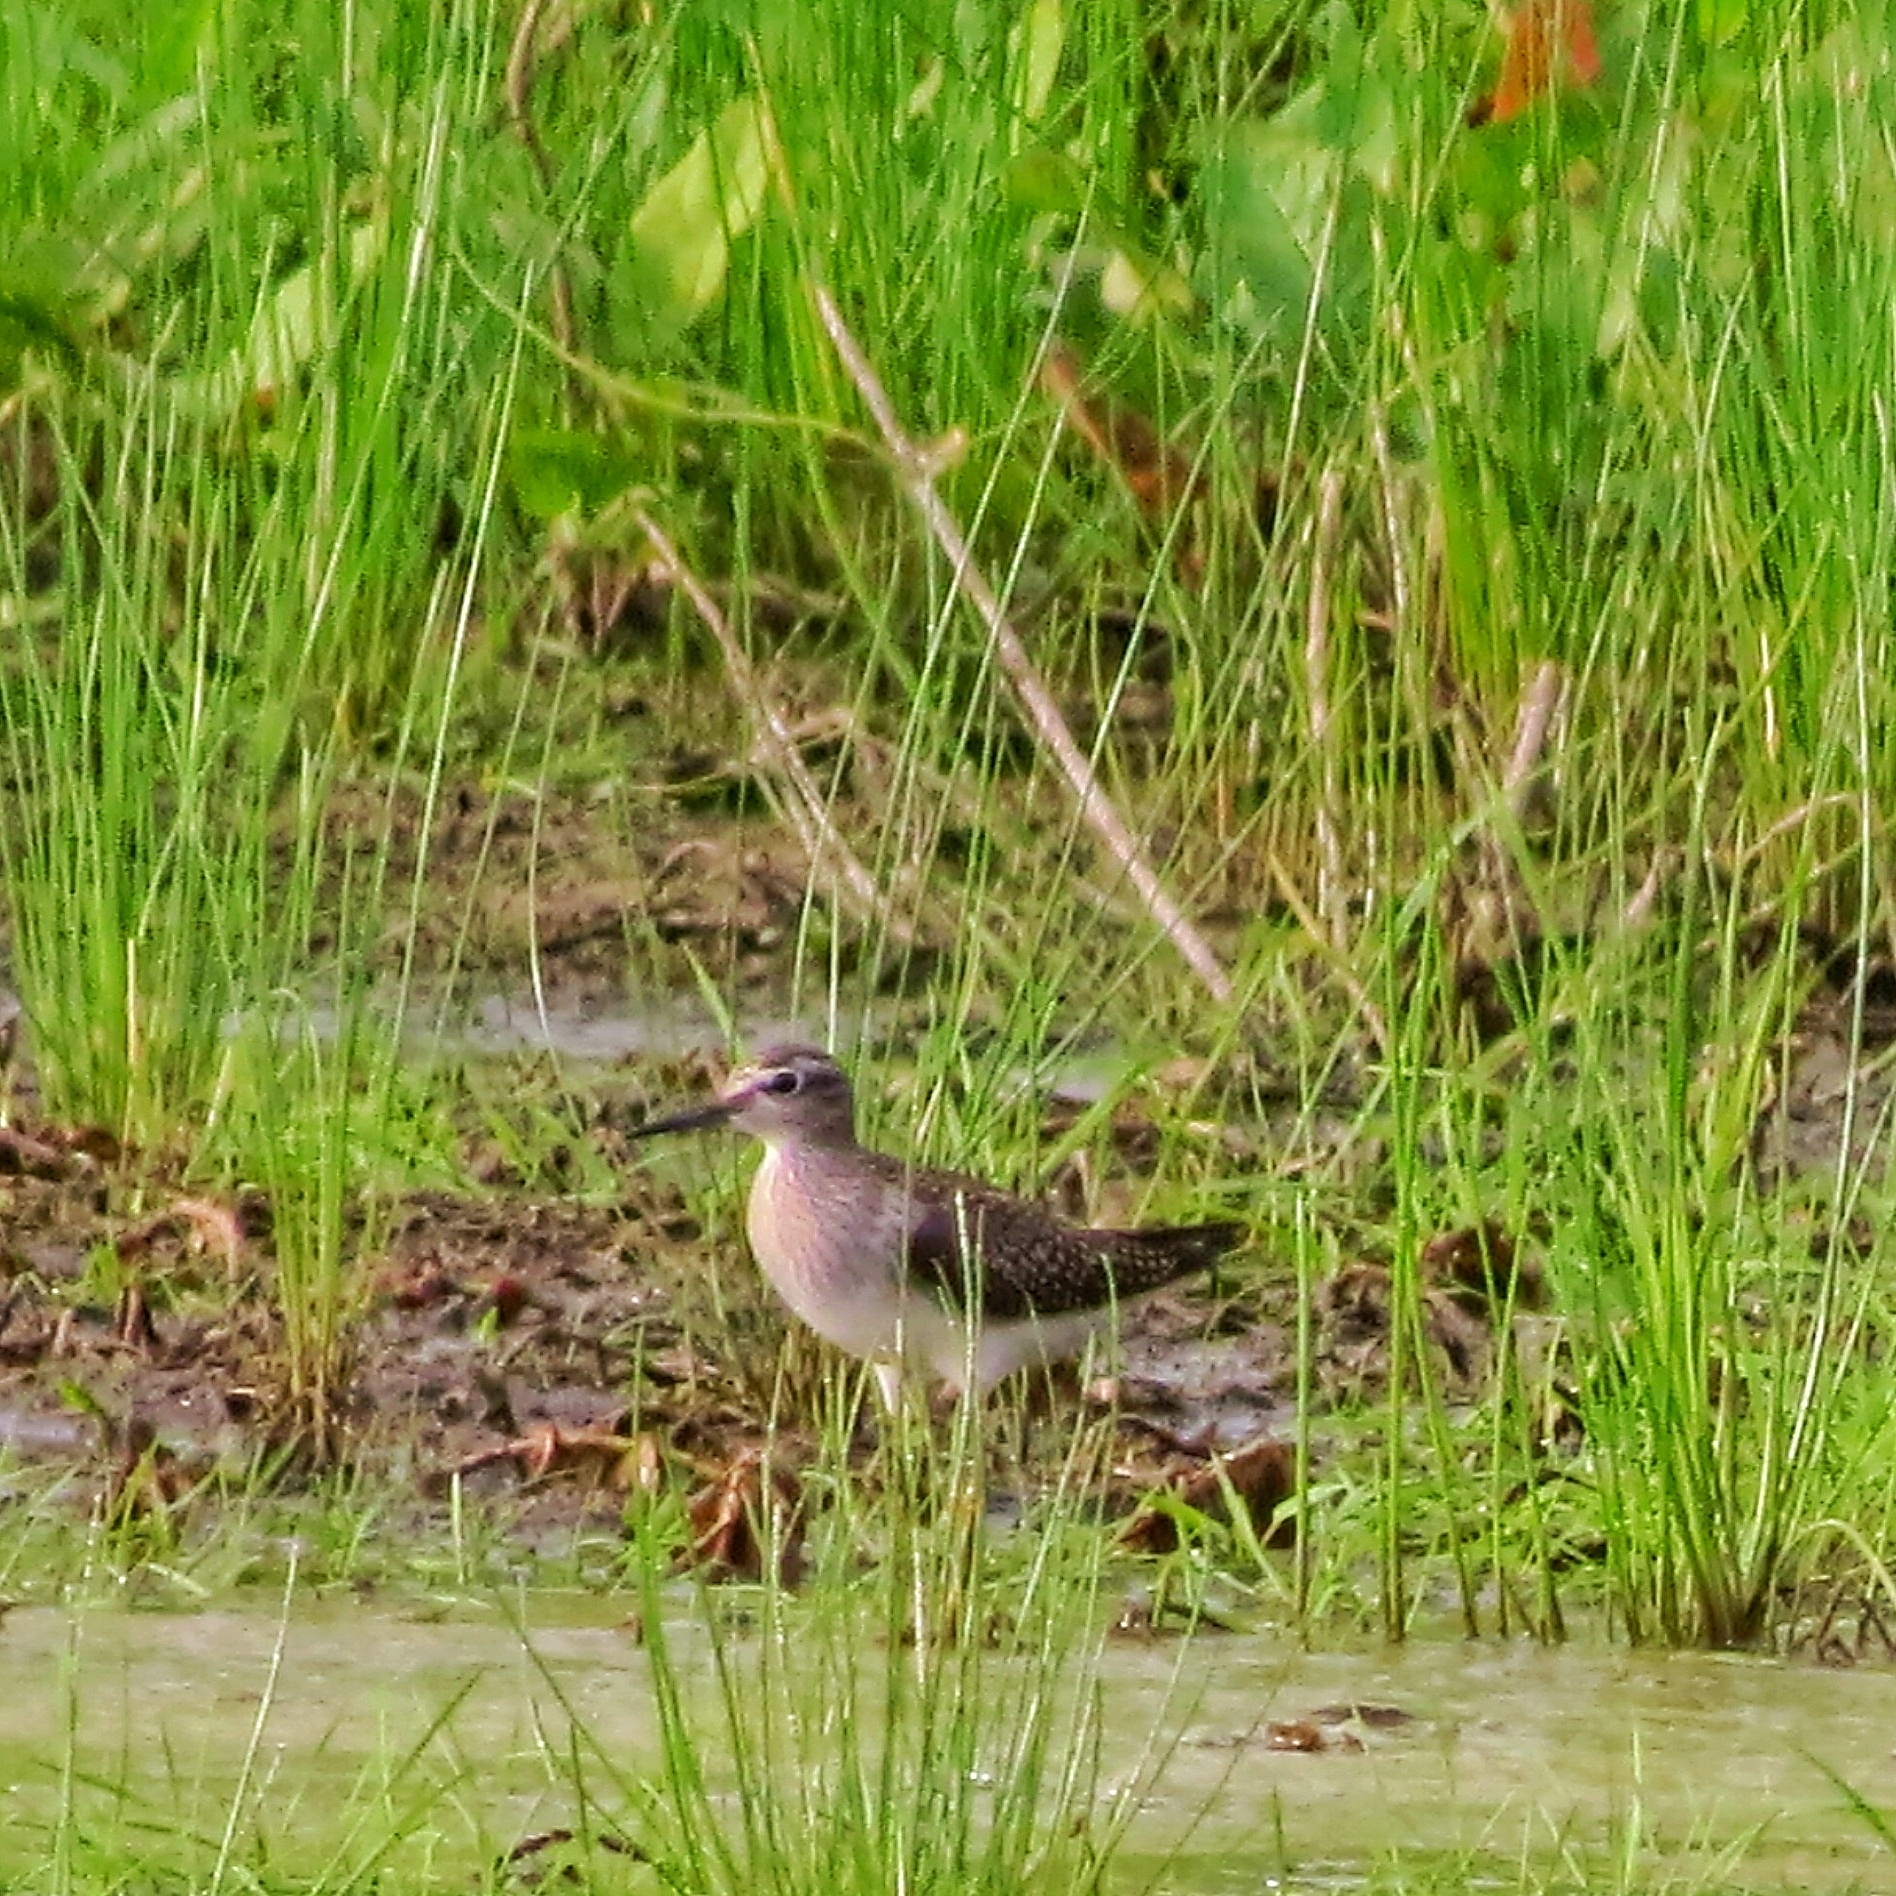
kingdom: Animalia
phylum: Chordata
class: Aves
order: Charadriiformes
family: Scolopacidae
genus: Tringa
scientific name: Tringa glareola
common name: Wood sandpiper
